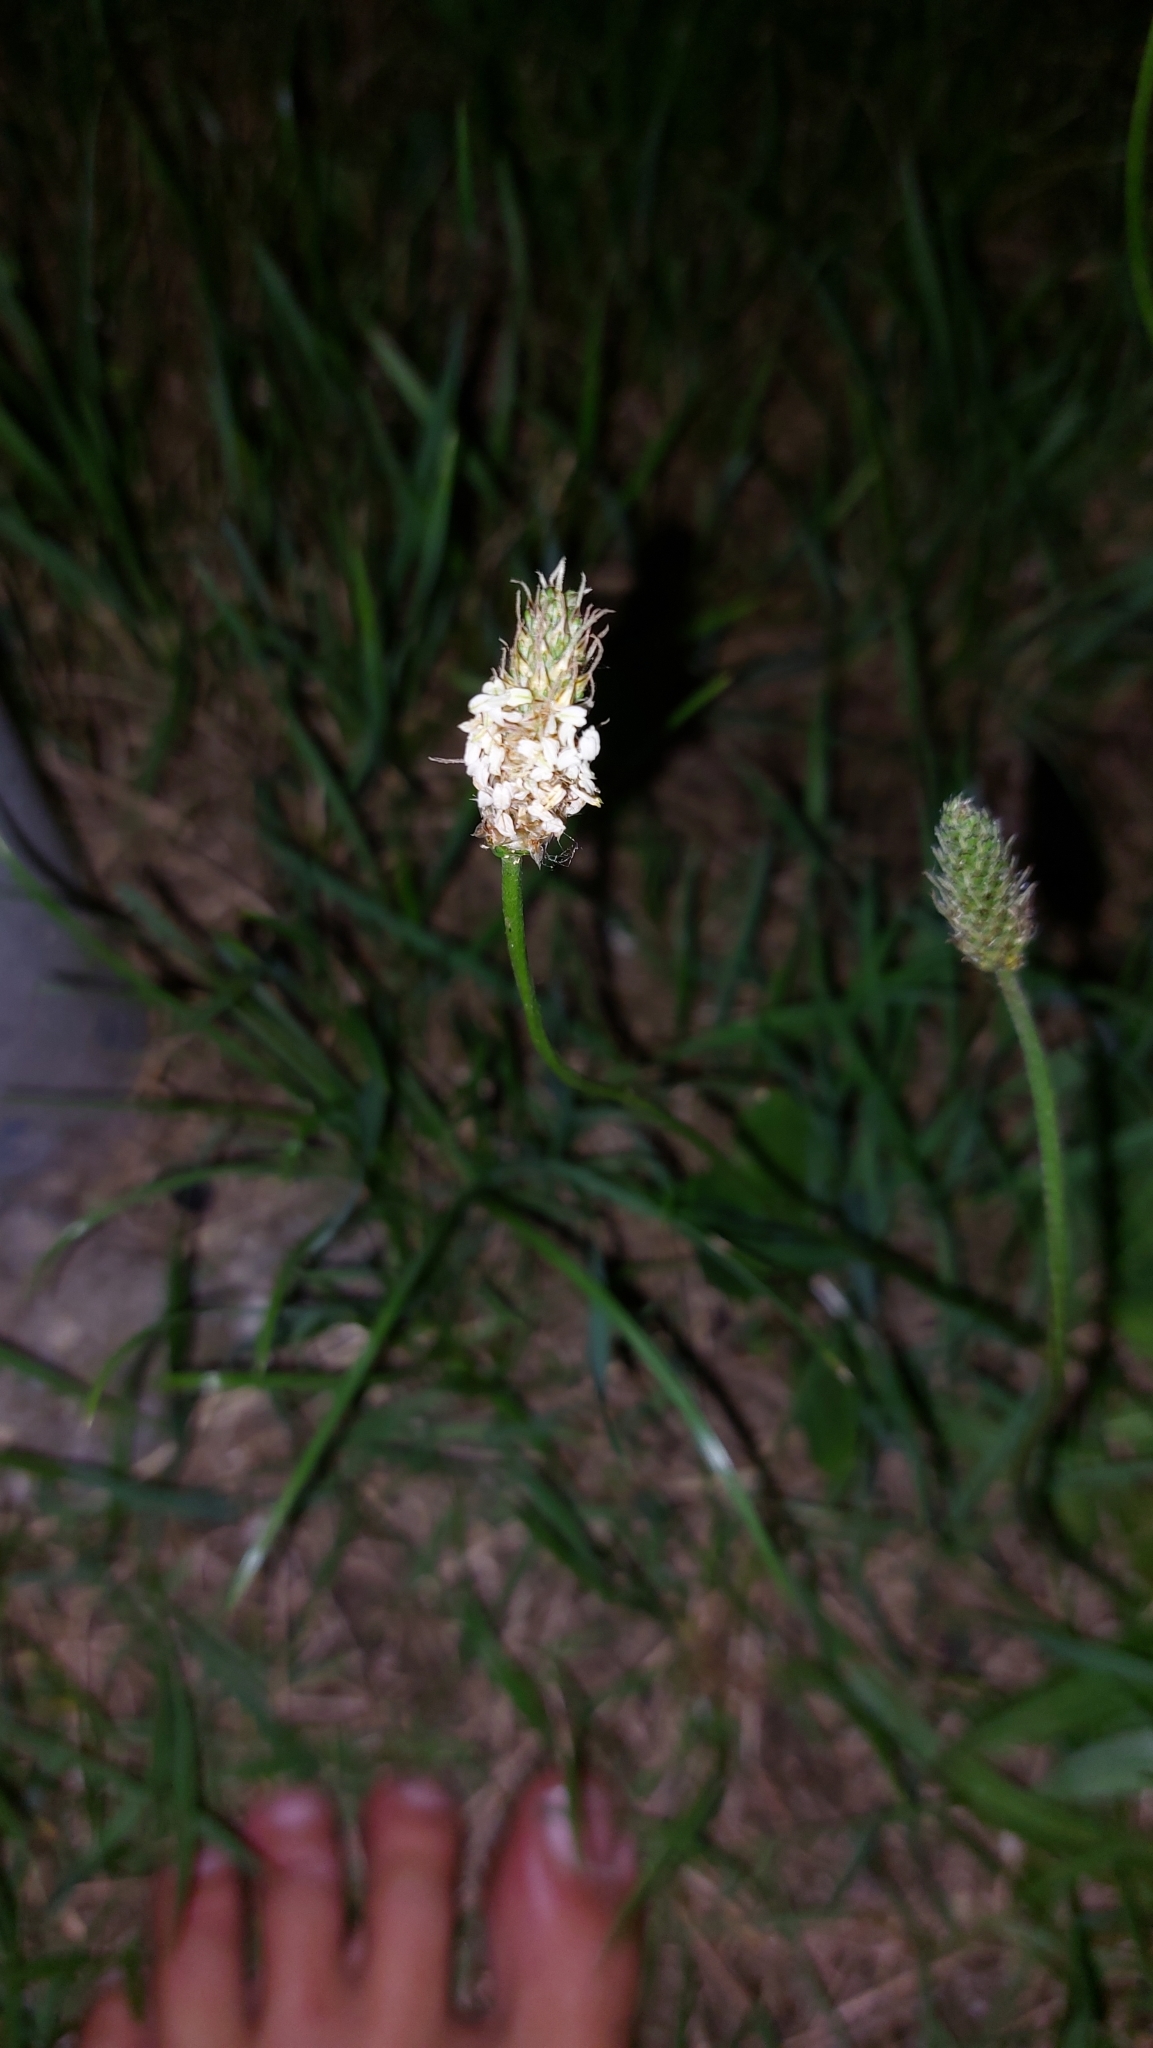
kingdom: Plantae
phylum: Tracheophyta
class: Magnoliopsida
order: Lamiales
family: Plantaginaceae
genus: Plantago
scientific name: Plantago lanceolata
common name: Ribwort plantain
